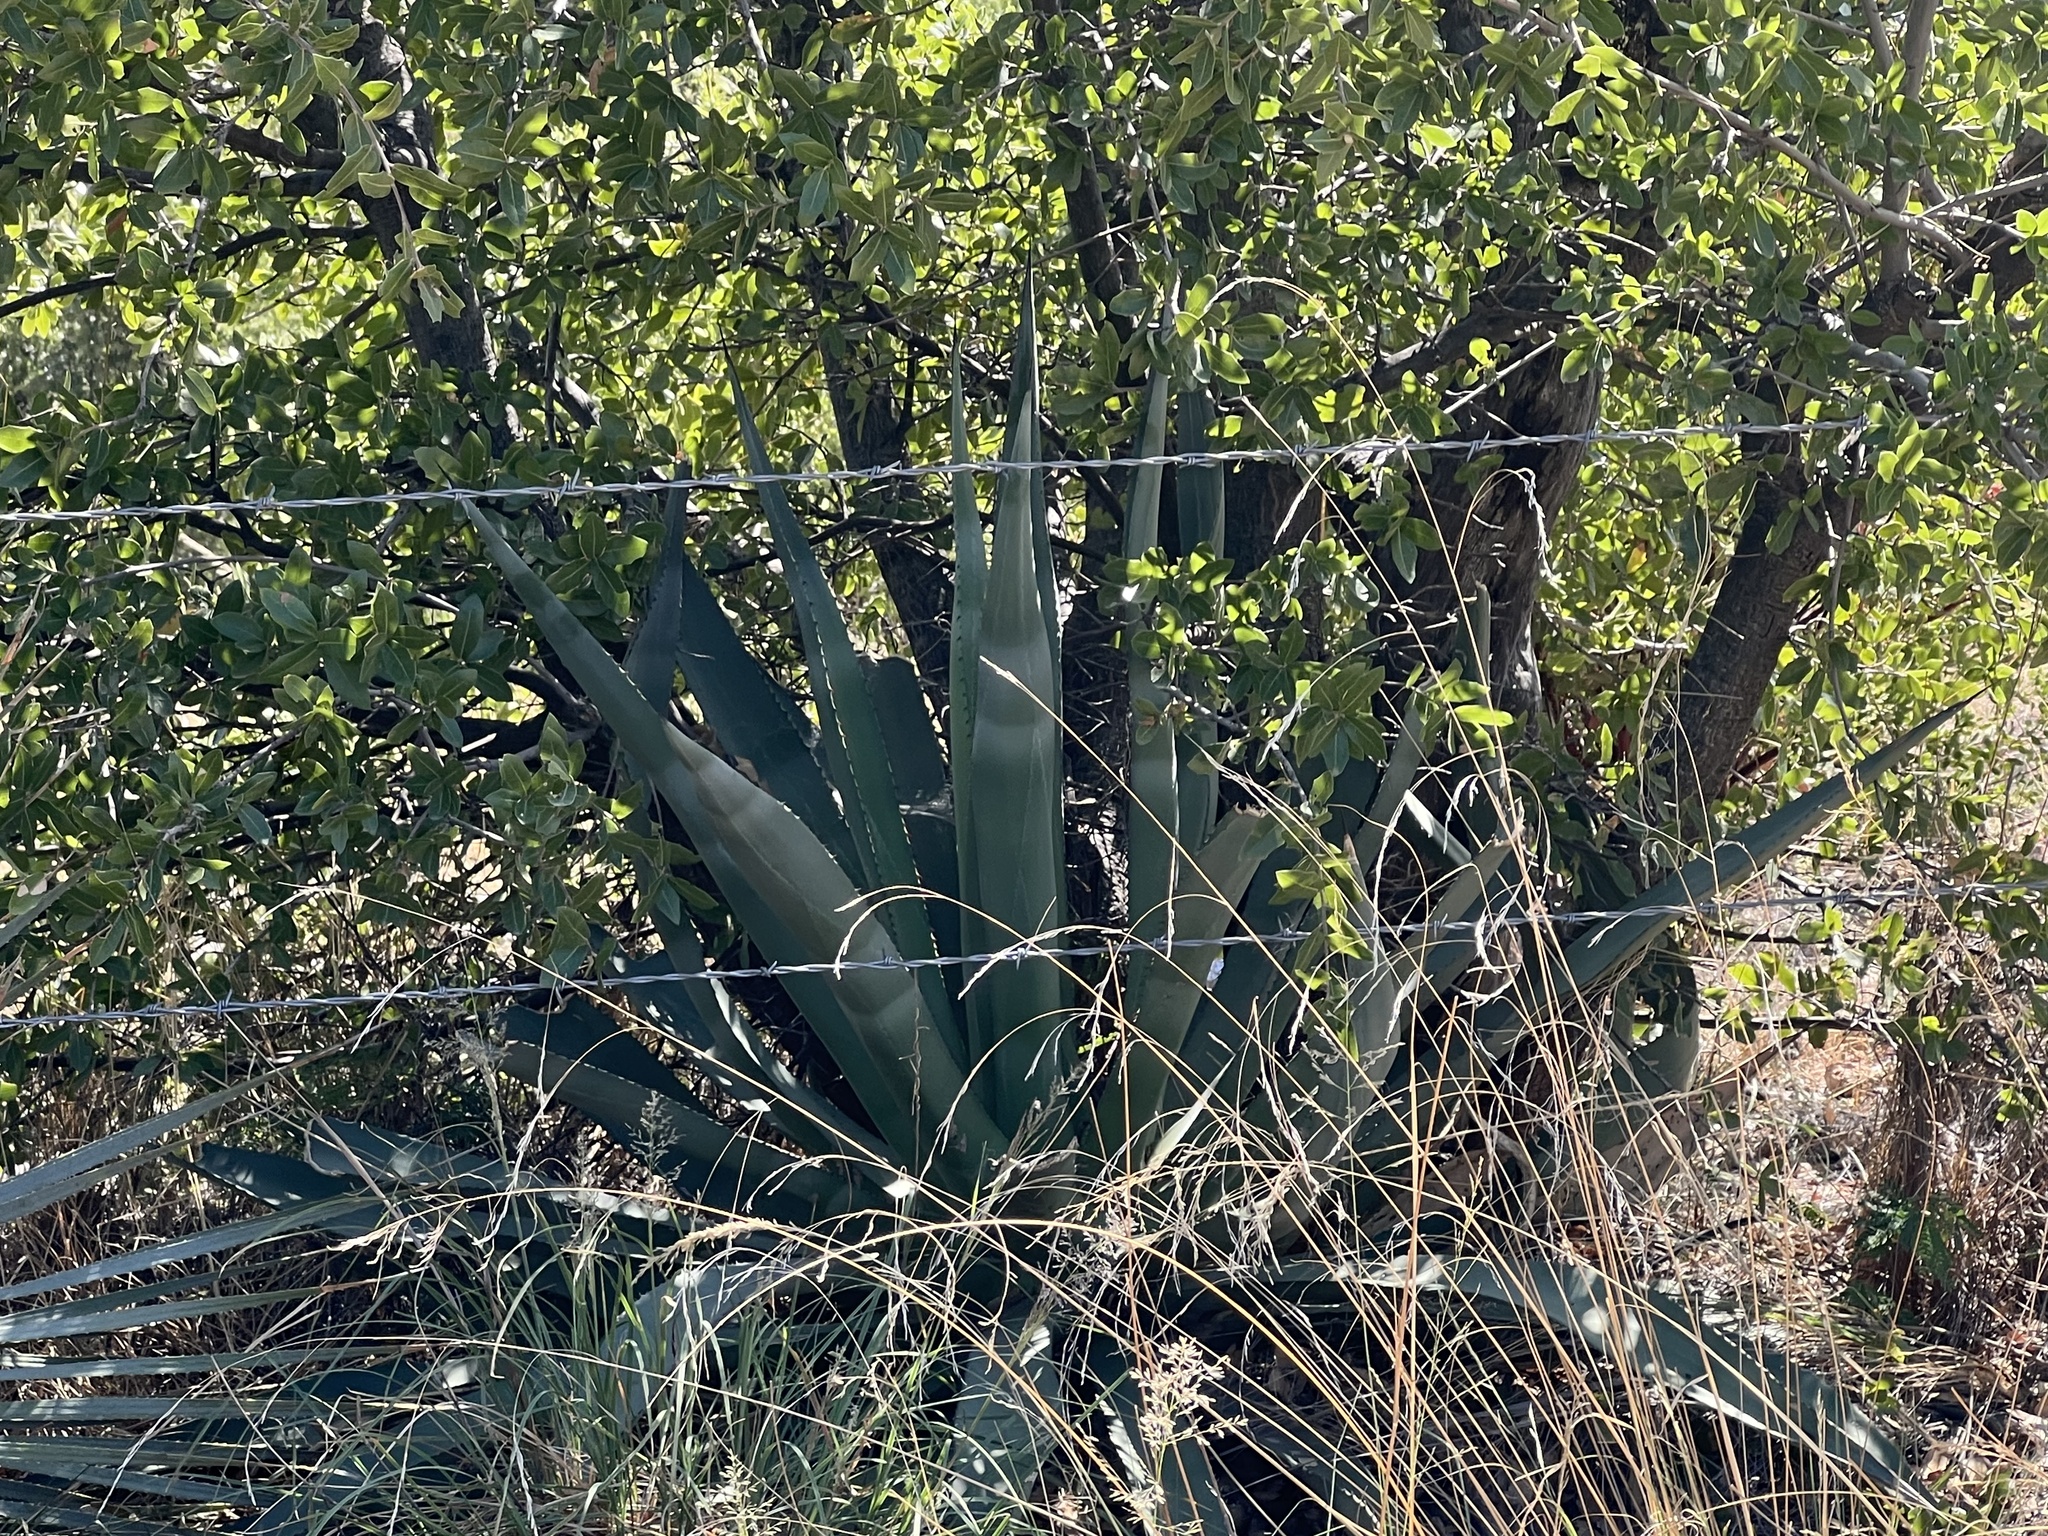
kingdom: Plantae
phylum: Tracheophyta
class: Liliopsida
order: Asparagales
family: Asparagaceae
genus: Agave
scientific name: Agave palmeri
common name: Palmer agave
